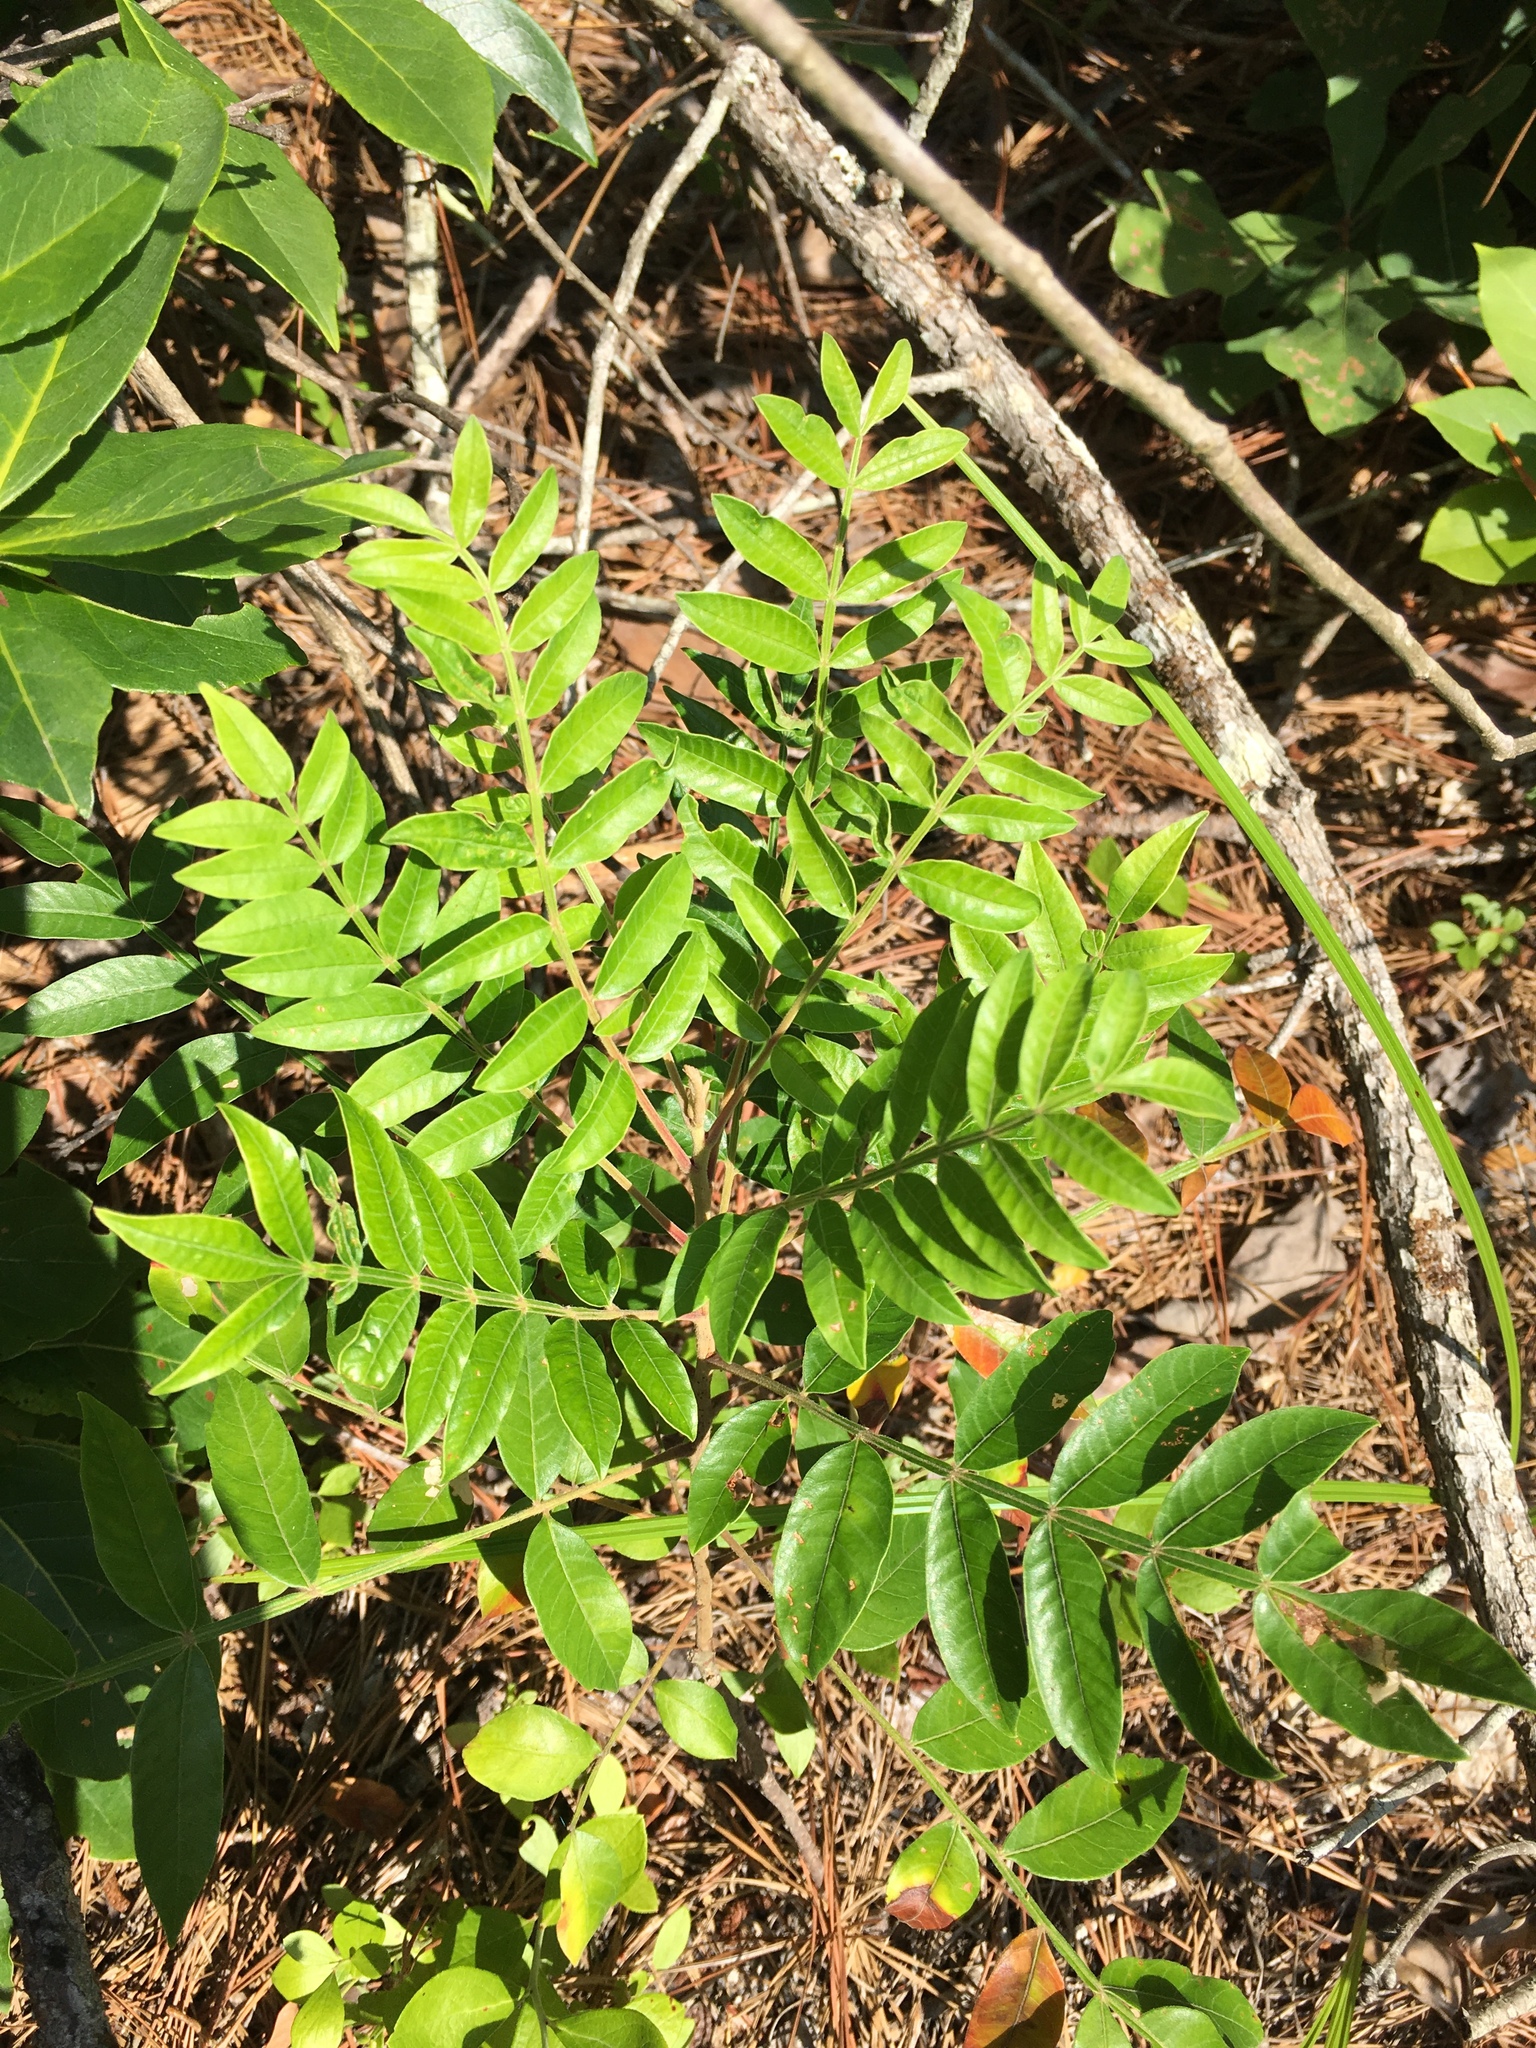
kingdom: Plantae
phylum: Tracheophyta
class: Magnoliopsida
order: Sapindales
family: Anacardiaceae
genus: Rhus
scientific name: Rhus copallina
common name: Shining sumac
